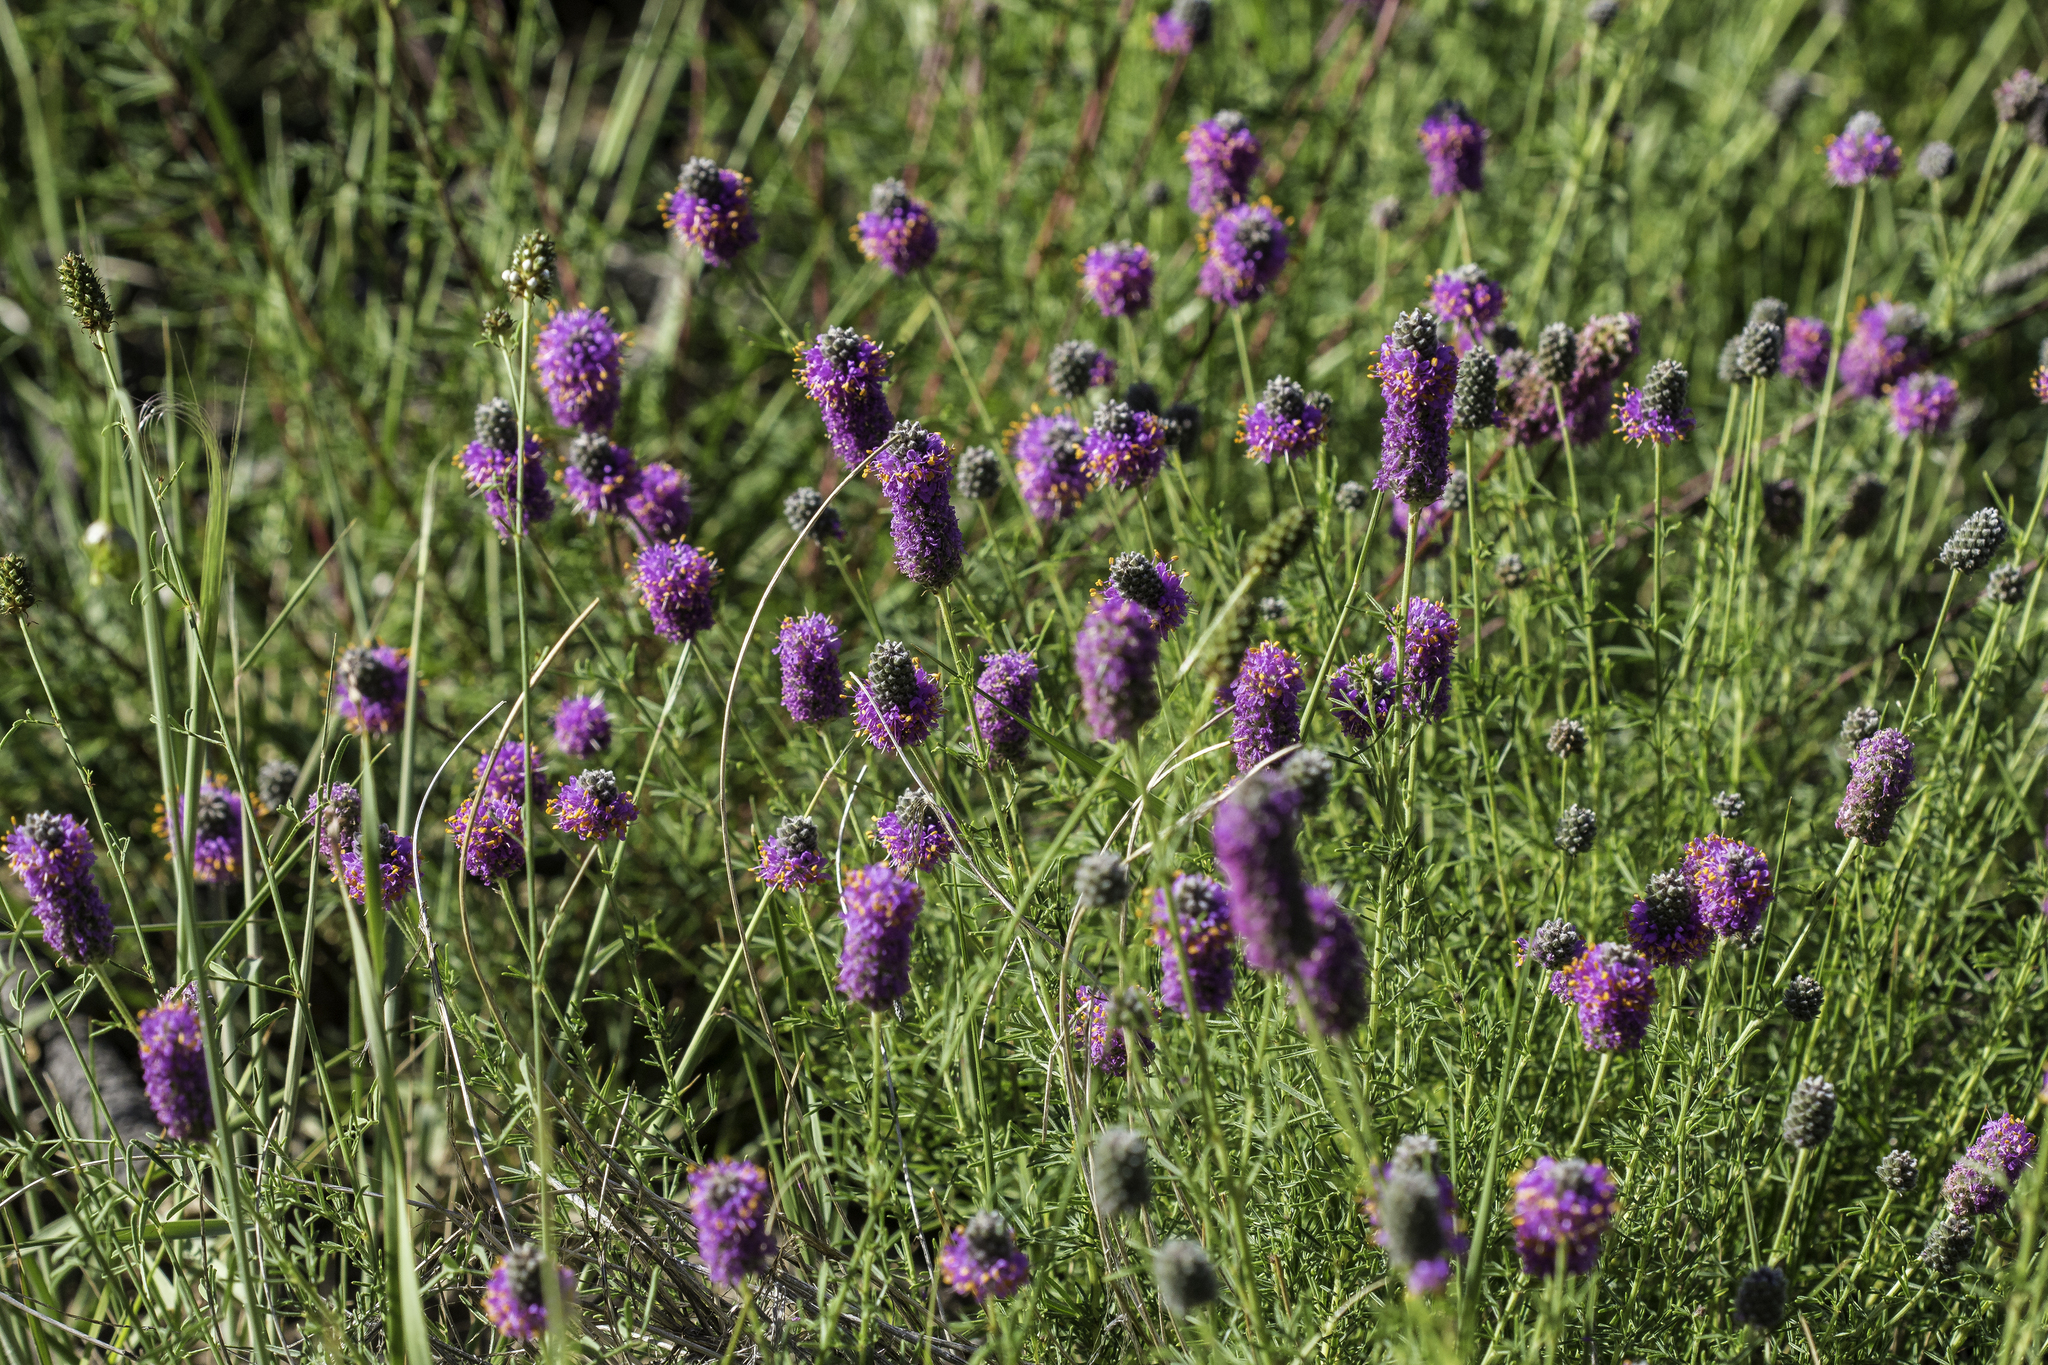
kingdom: Plantae
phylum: Tracheophyta
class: Magnoliopsida
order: Fabales
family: Fabaceae
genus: Dalea
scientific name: Dalea purpurea
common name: Purple prairie-clover
